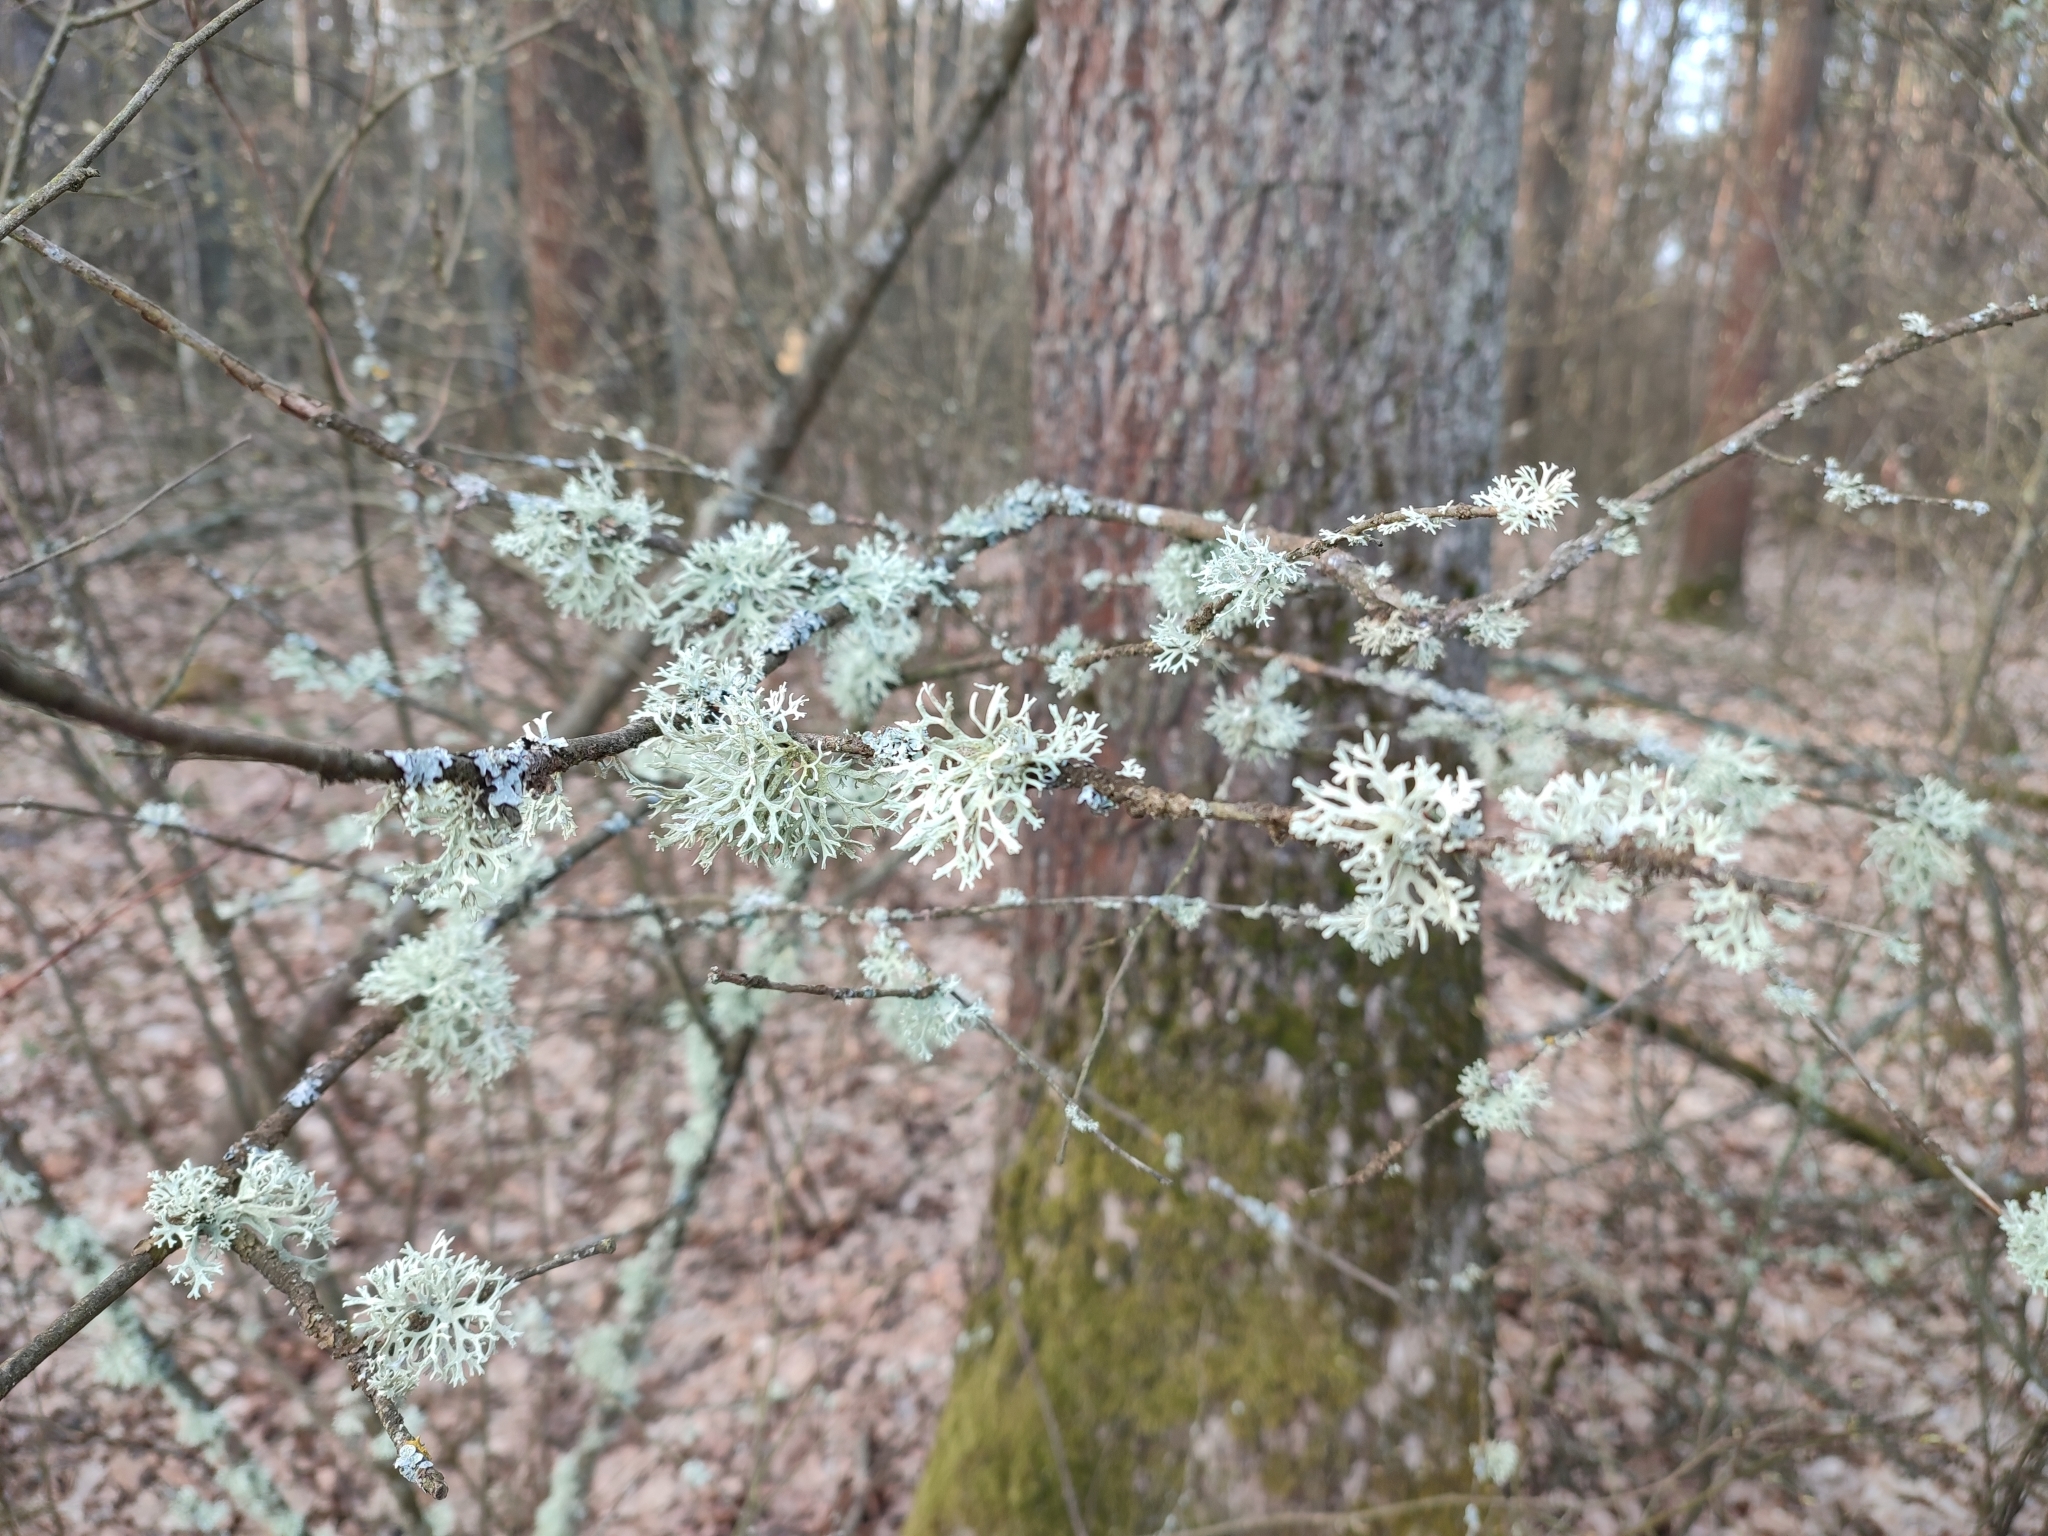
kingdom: Fungi
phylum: Ascomycota
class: Lecanoromycetes
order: Lecanorales
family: Parmeliaceae
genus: Evernia
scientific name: Evernia prunastri
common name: Oak moss
